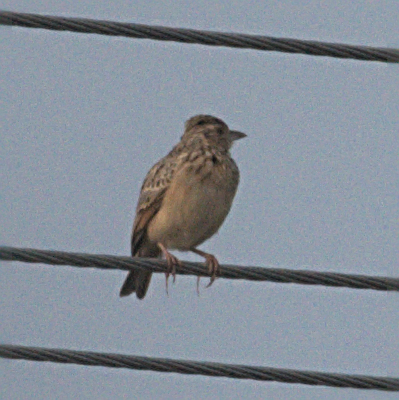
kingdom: Animalia
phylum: Chordata
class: Aves
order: Passeriformes
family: Alaudidae
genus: Mirafra
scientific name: Mirafra affinis
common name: Jerdon's bushlark
